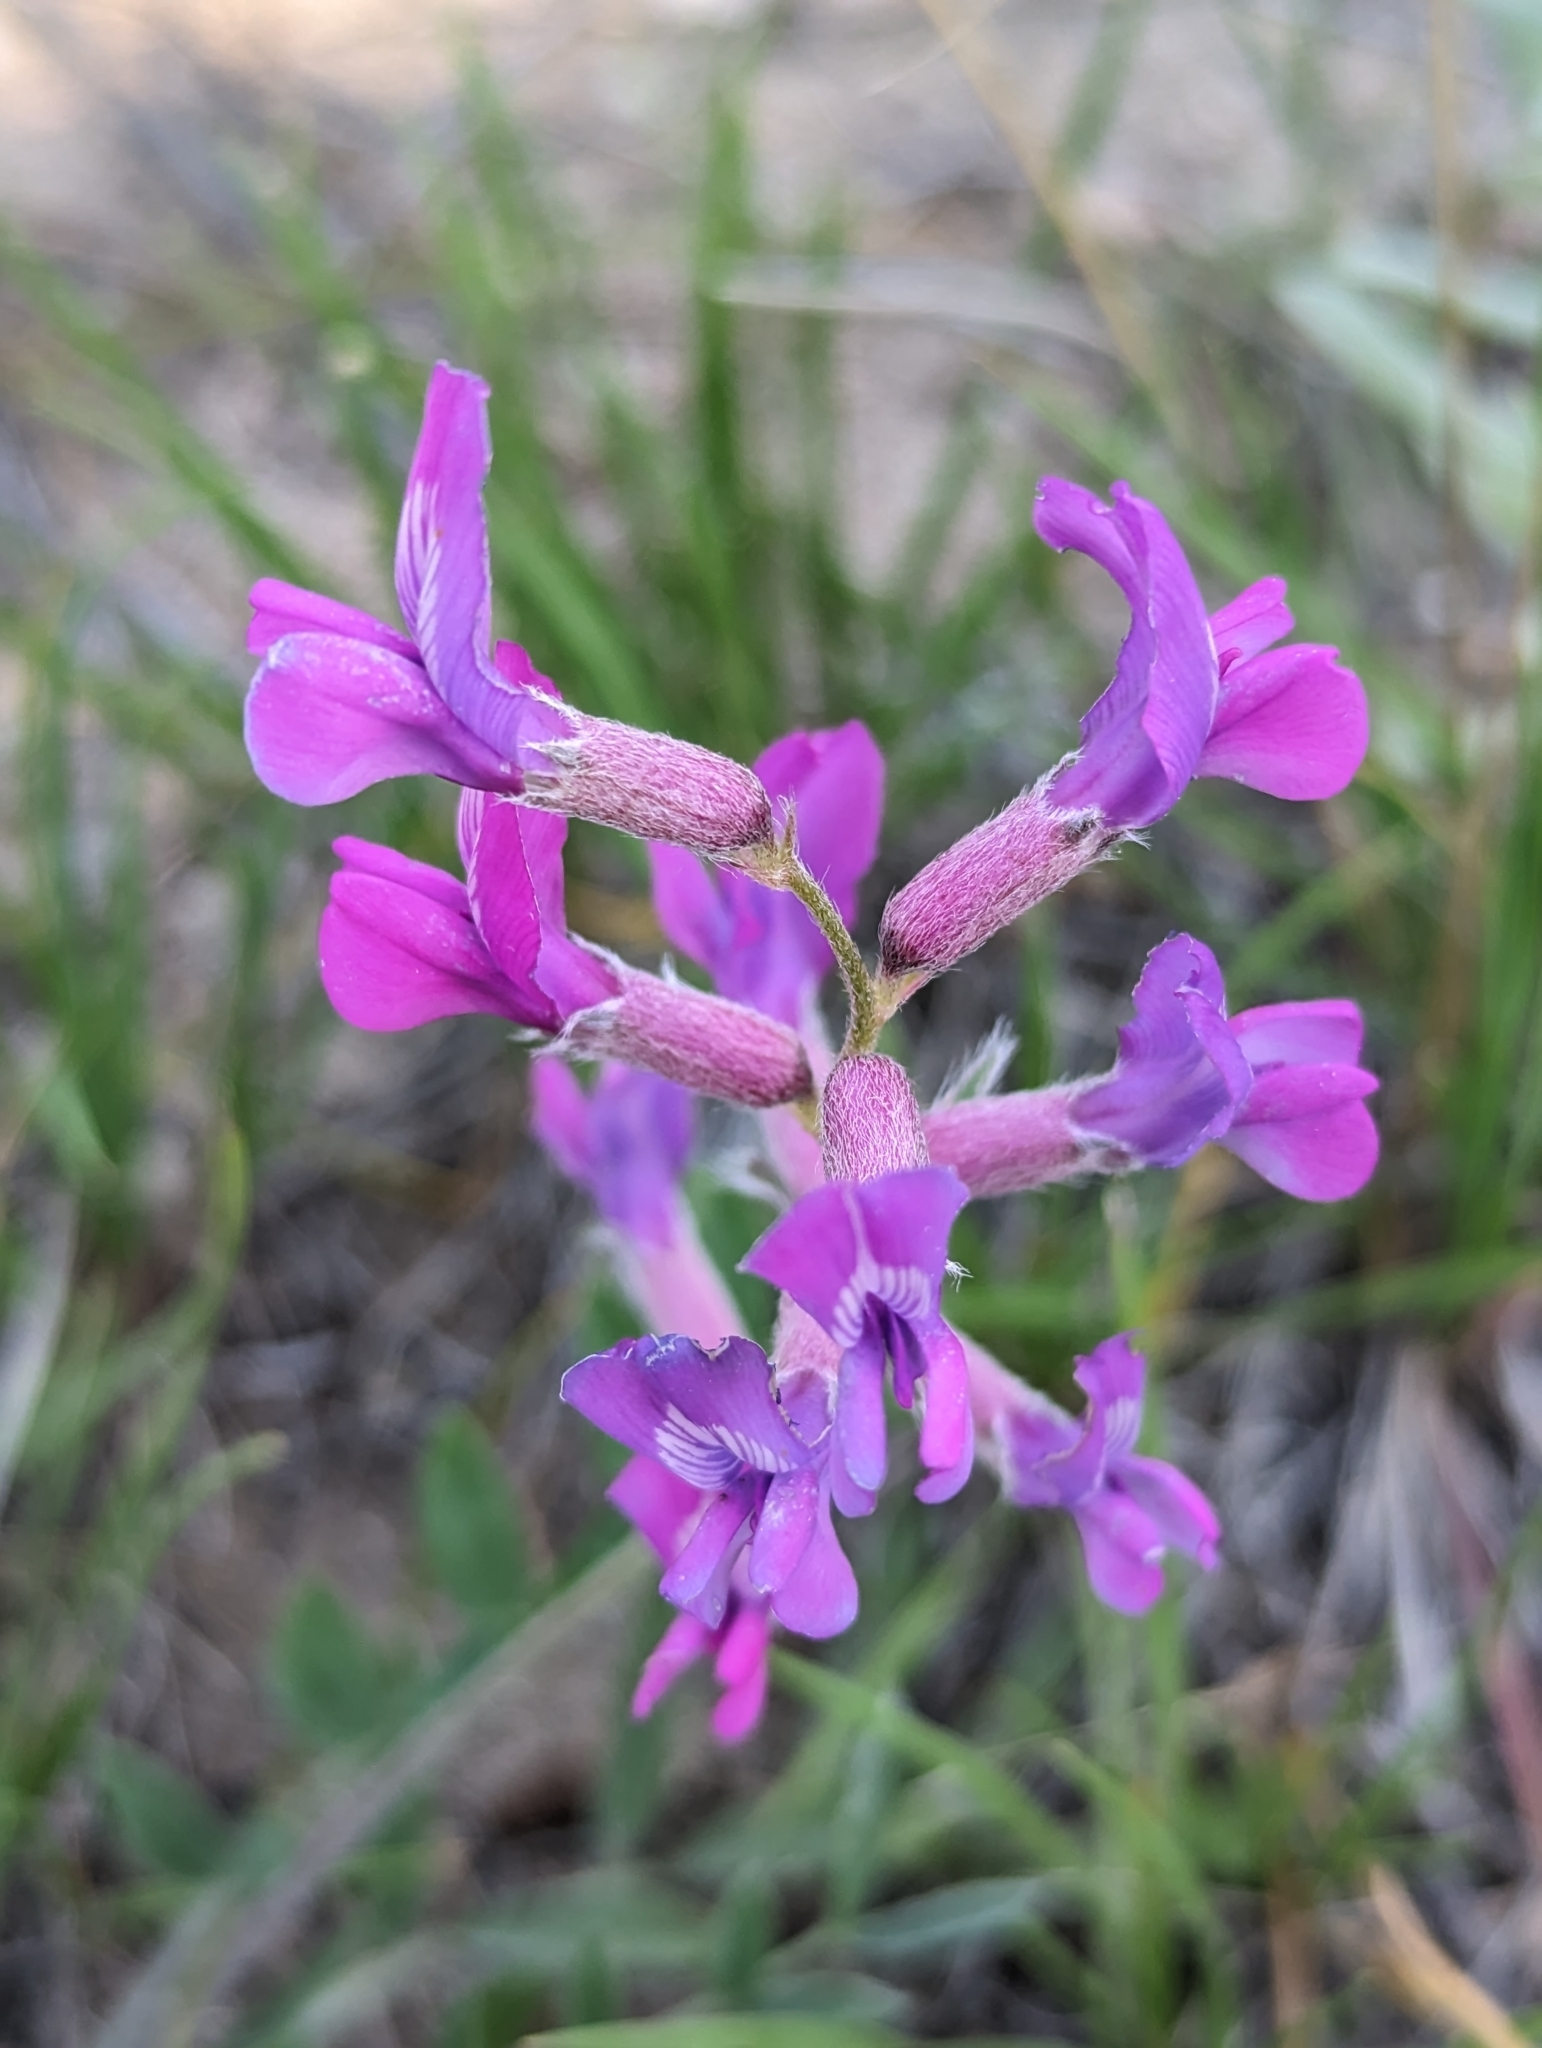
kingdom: Plantae
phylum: Tracheophyta
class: Magnoliopsida
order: Fabales
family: Fabaceae
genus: Oxytropis
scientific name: Oxytropis lambertii
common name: Purple locoweed
